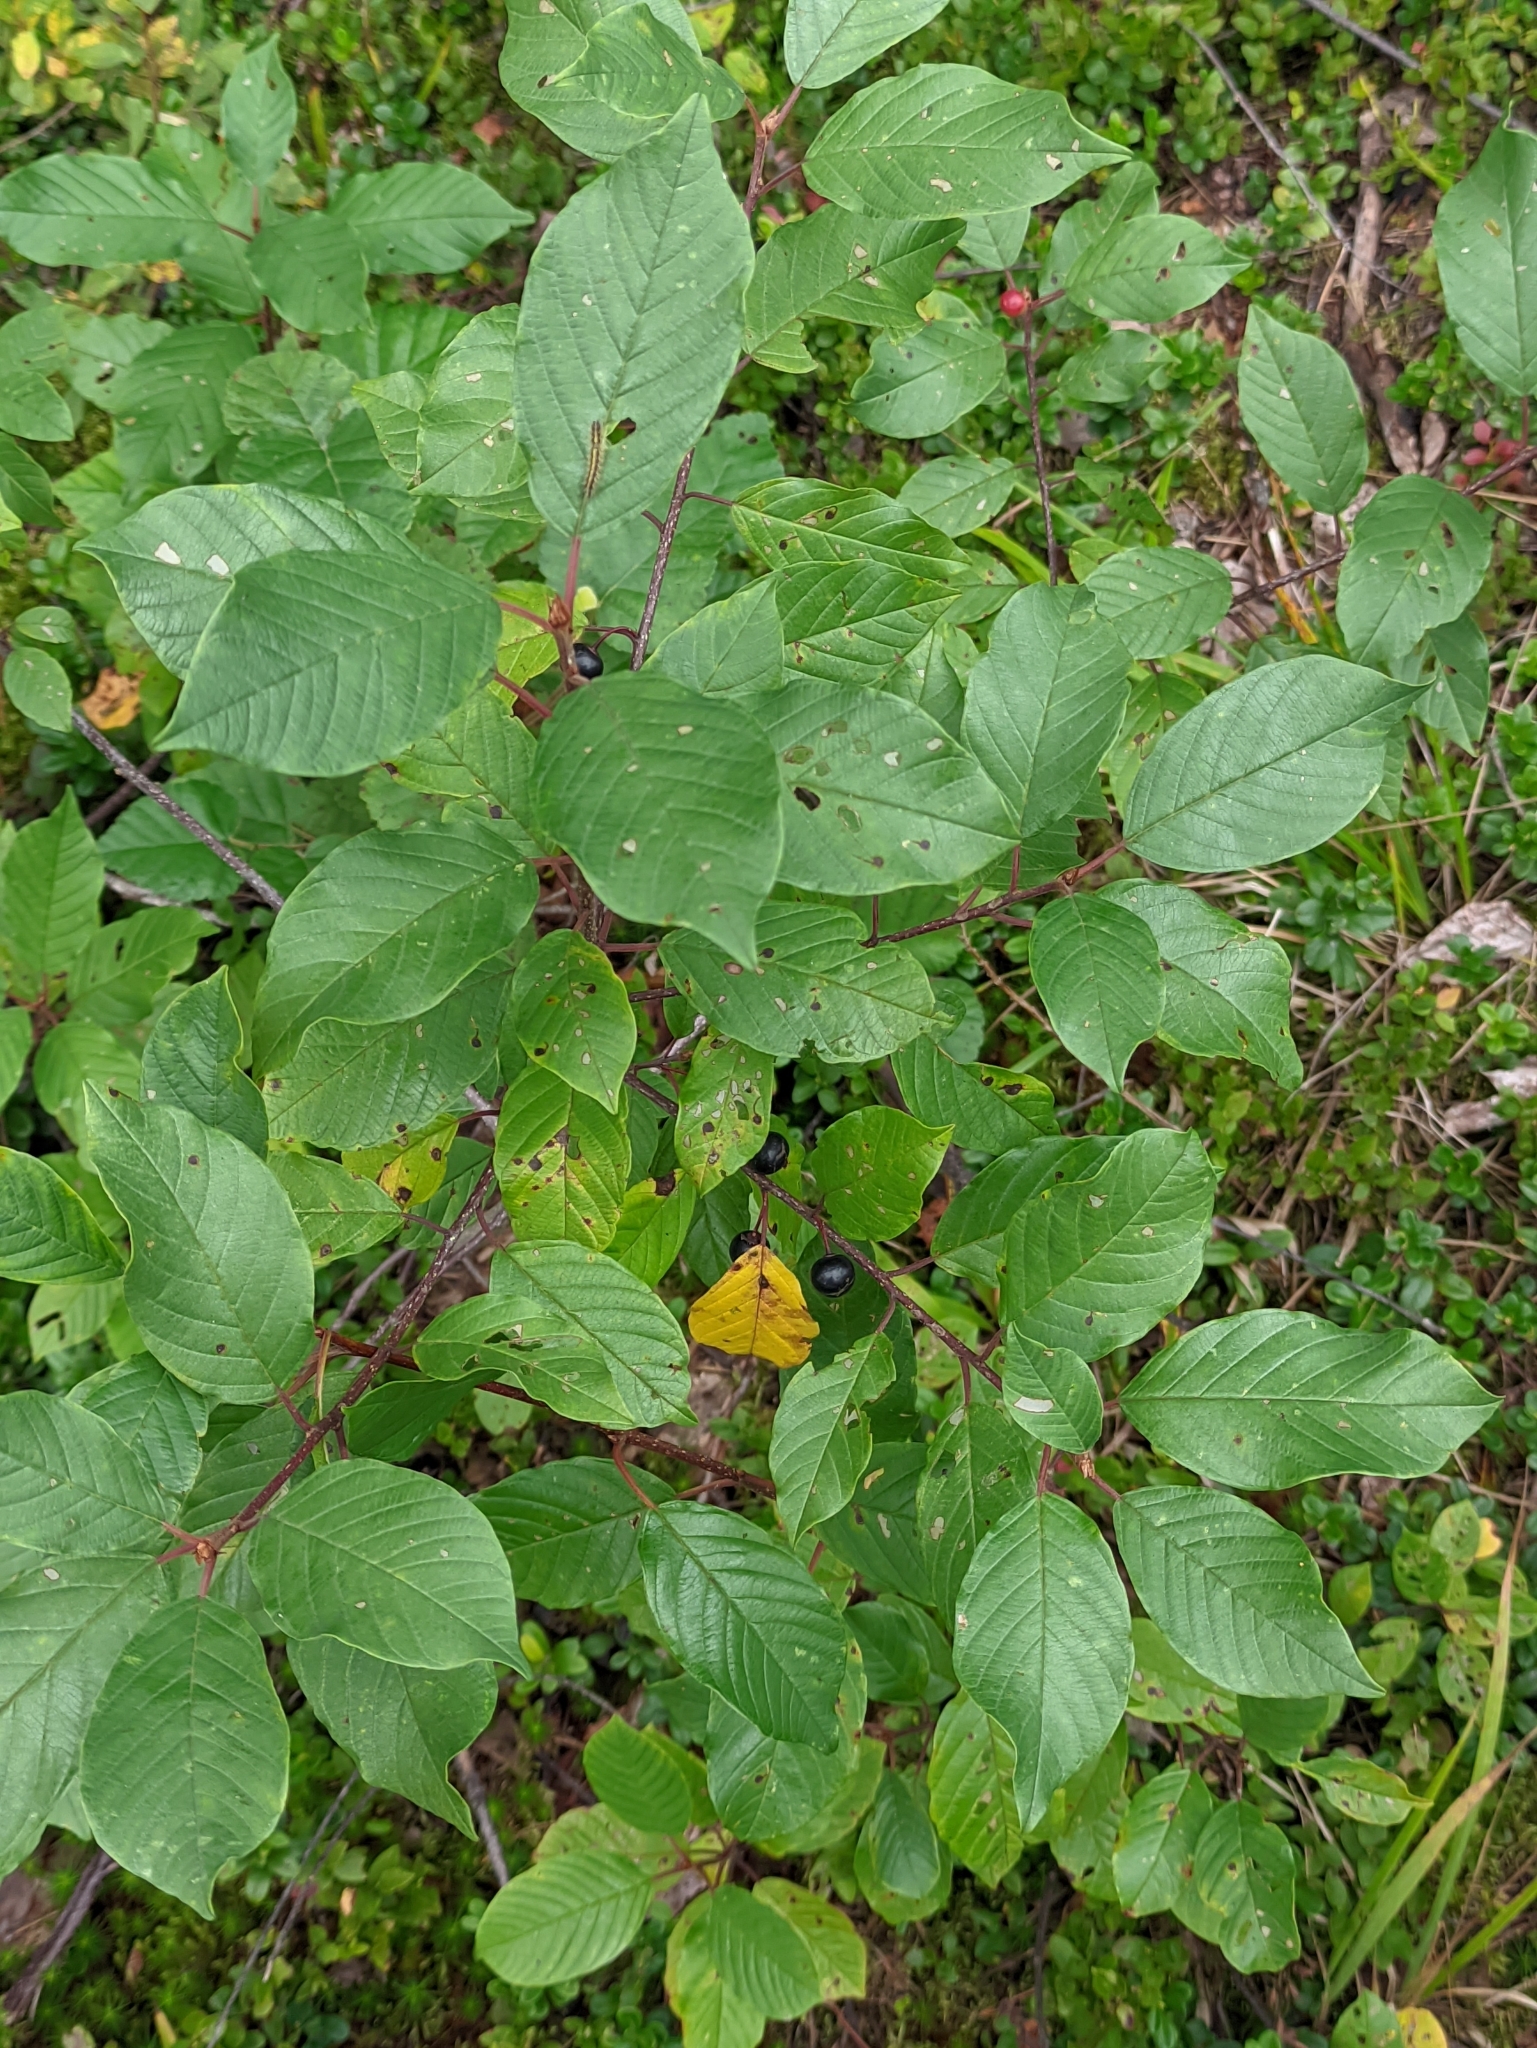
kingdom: Plantae
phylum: Tracheophyta
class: Magnoliopsida
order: Rosales
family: Rhamnaceae
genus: Frangula
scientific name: Frangula alnus
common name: Alder buckthorn
